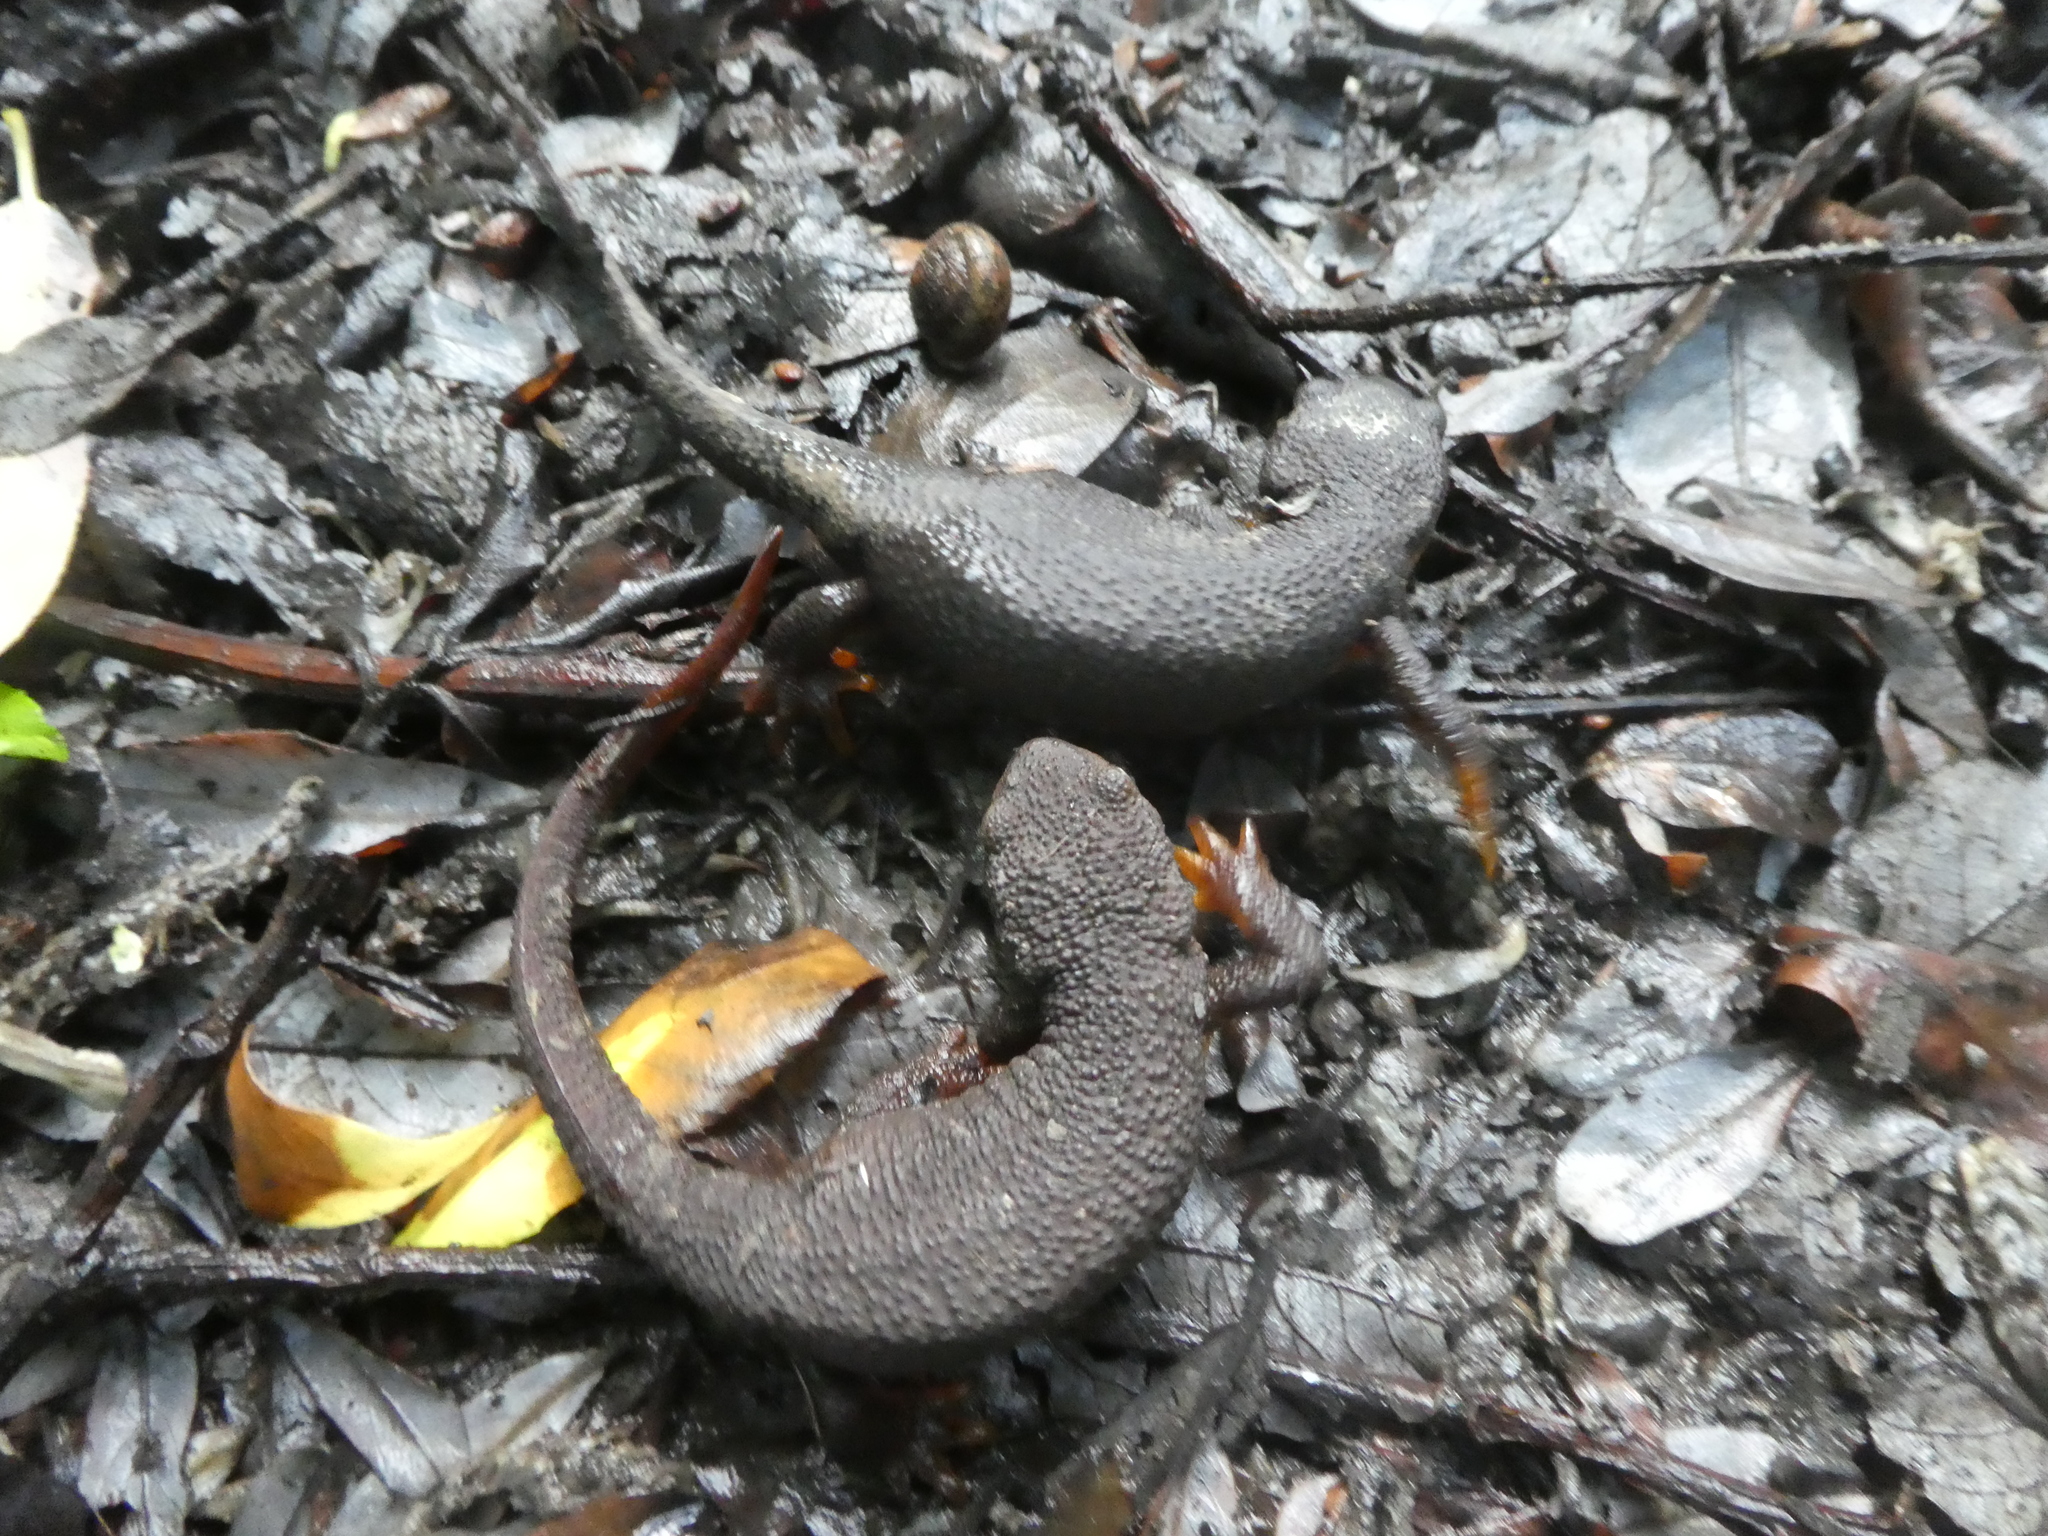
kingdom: Animalia
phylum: Chordata
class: Amphibia
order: Caudata
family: Salamandridae
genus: Taricha
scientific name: Taricha granulosa
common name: Roughskin newt
